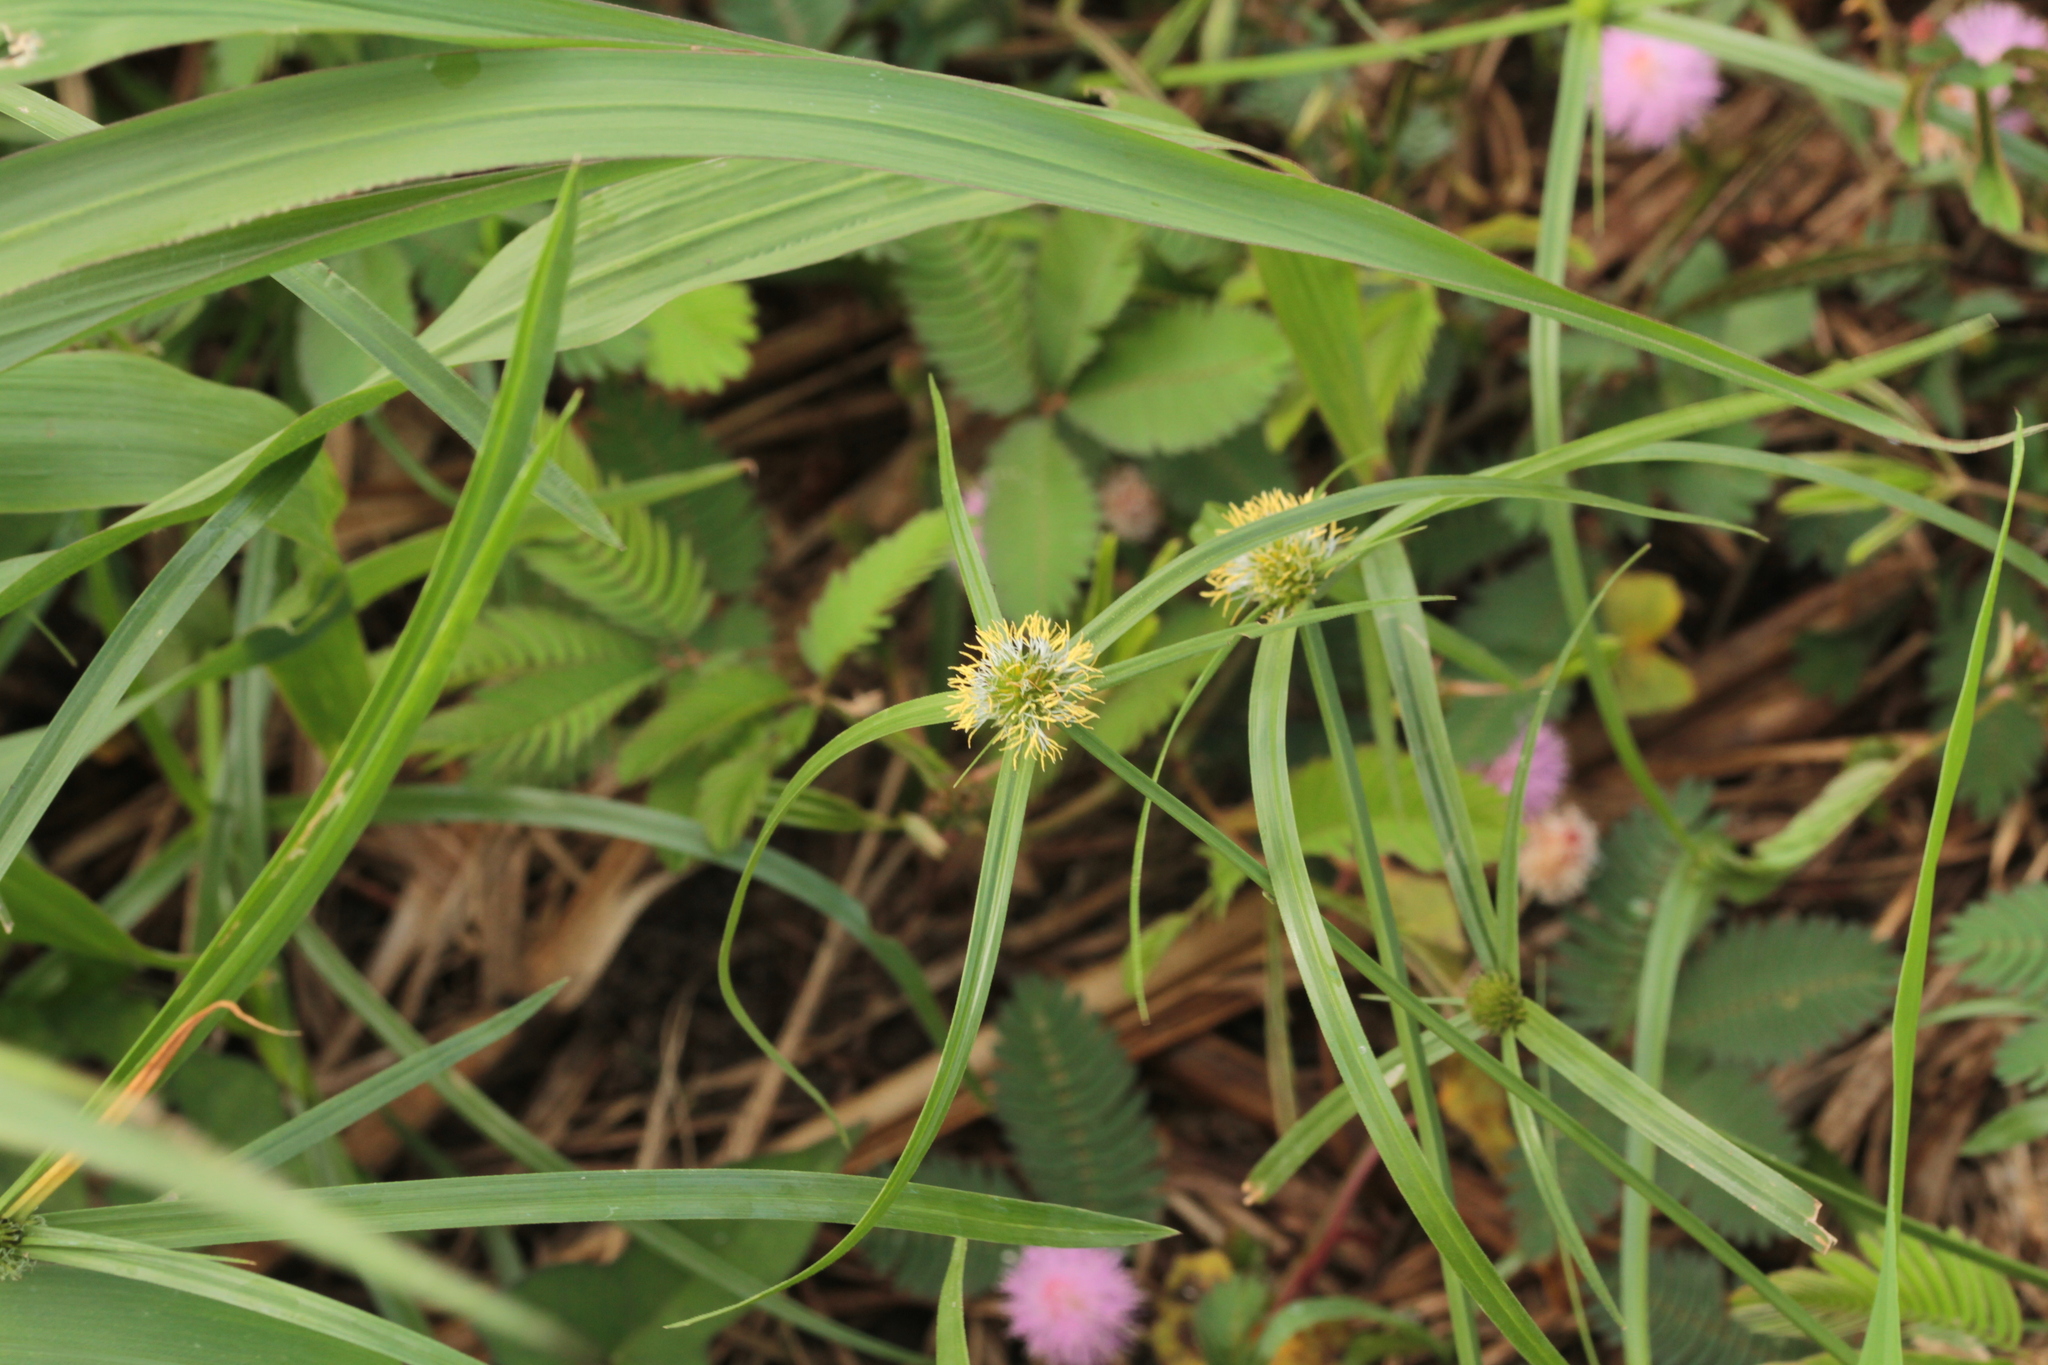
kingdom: Plantae
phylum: Tracheophyta
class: Liliopsida
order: Poales
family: Cyperaceae
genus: Cyperus
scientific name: Cyperus aromaticus
